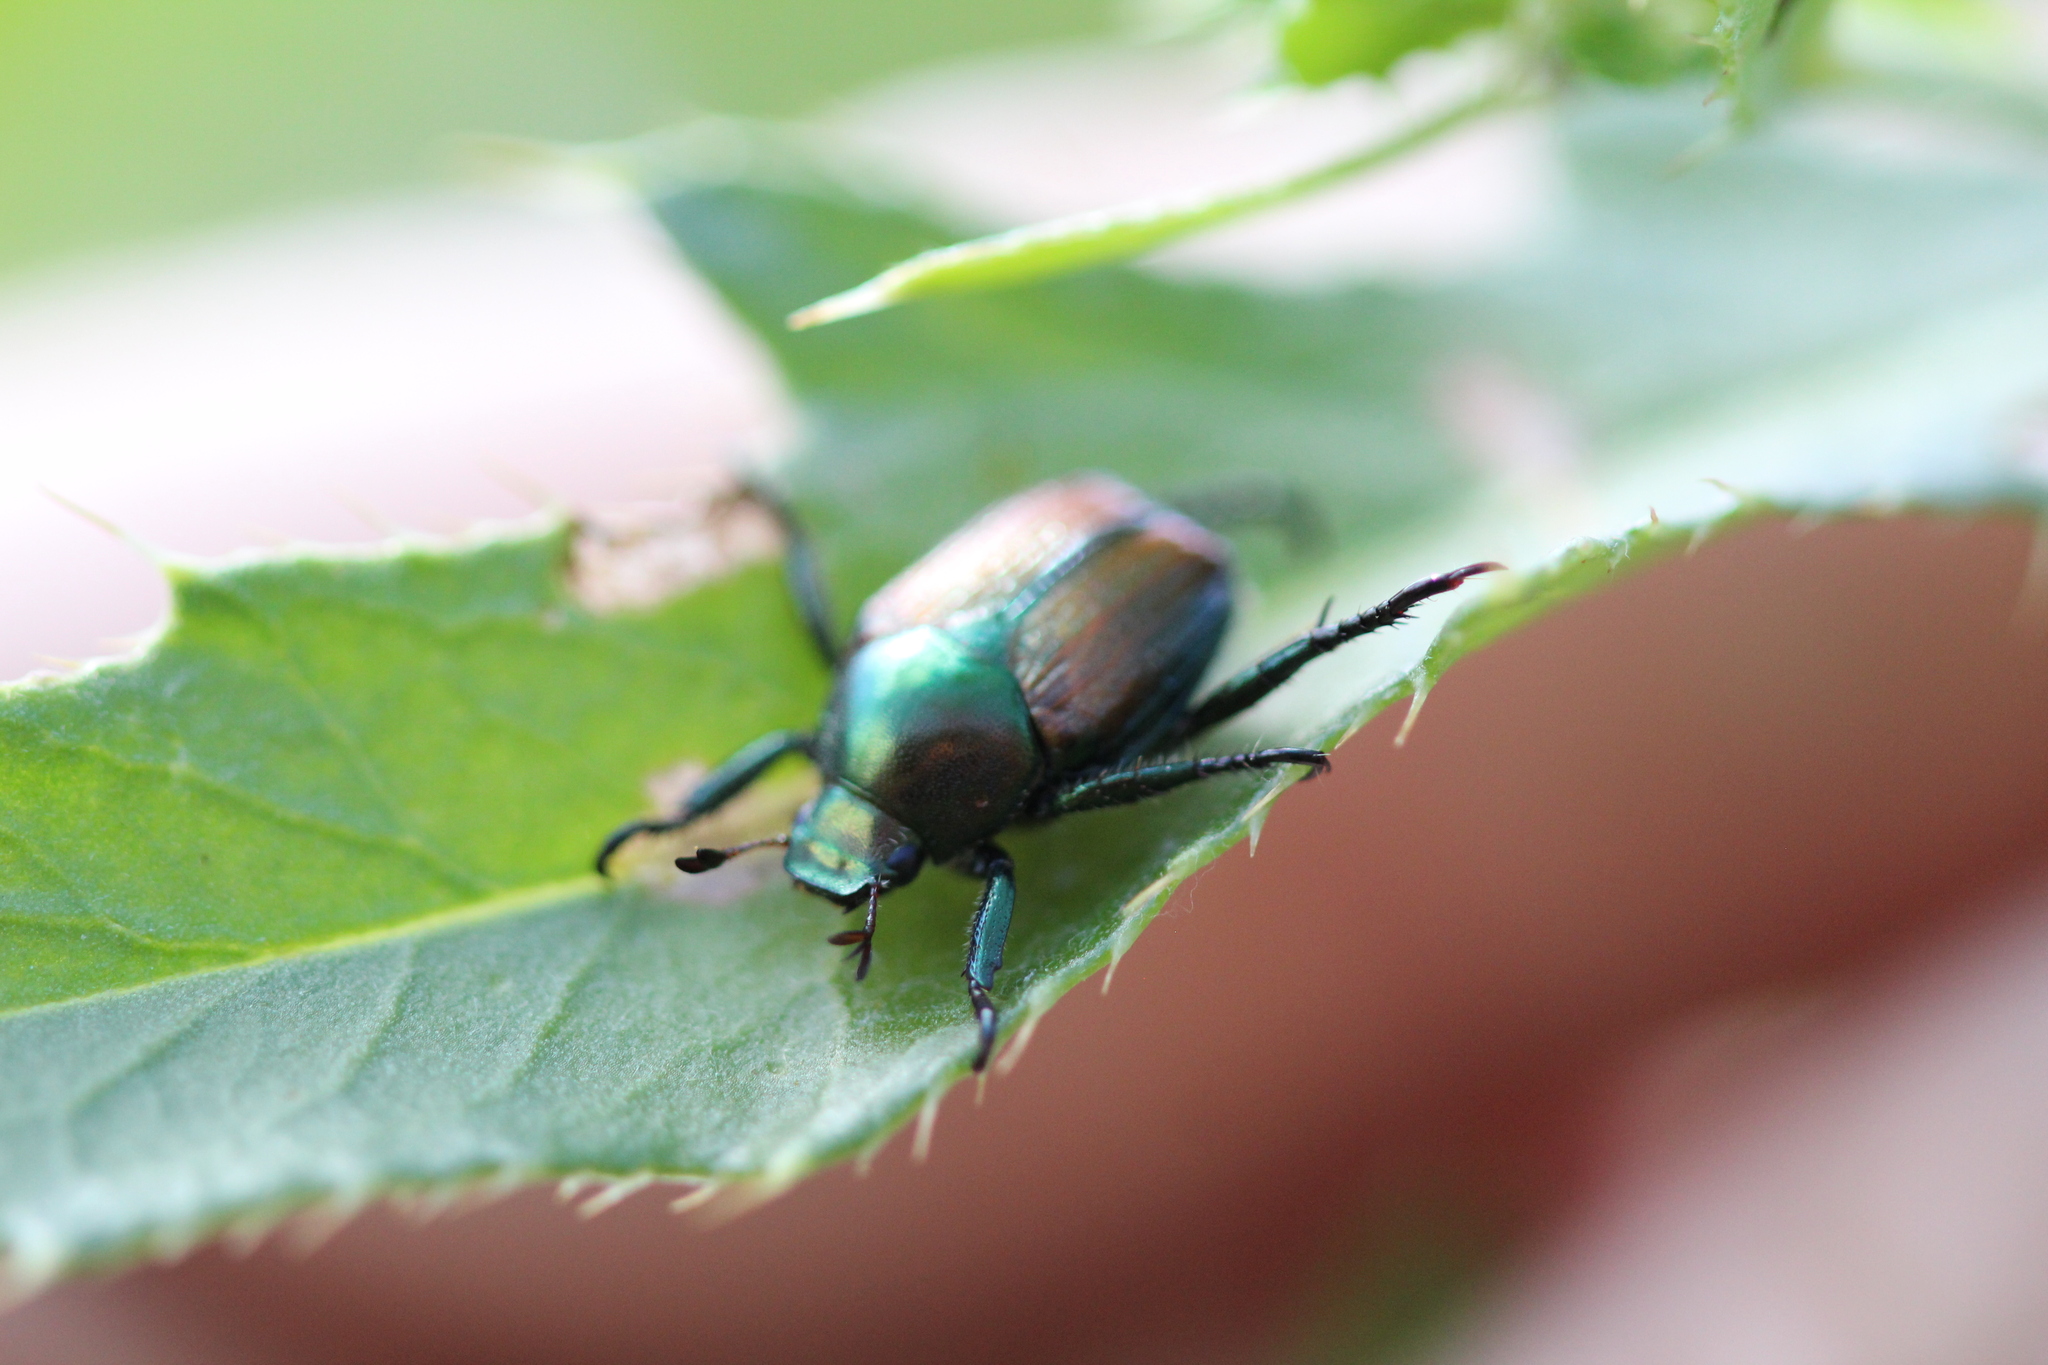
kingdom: Animalia
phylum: Arthropoda
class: Insecta
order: Coleoptera
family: Scarabaeidae
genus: Popillia
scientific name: Popillia japonica
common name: Japanese beetle
